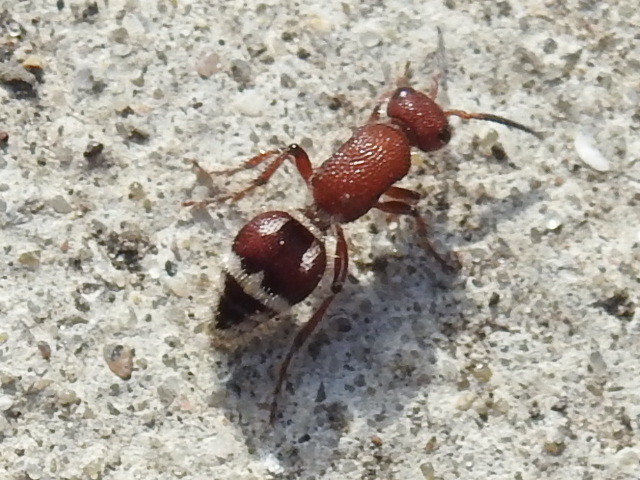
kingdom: Animalia
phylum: Arthropoda
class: Insecta
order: Hymenoptera
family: Mutillidae
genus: Timulla
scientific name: Timulla
